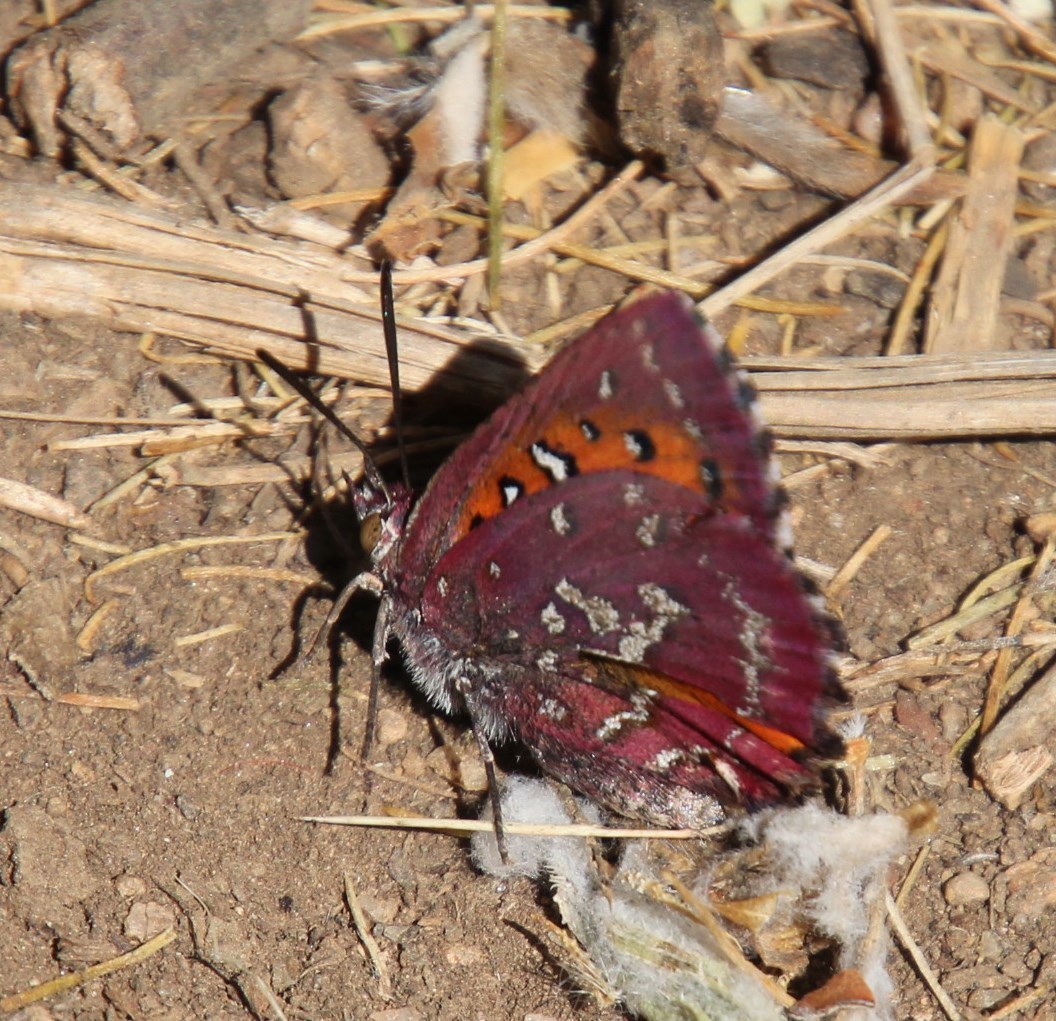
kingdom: Animalia
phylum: Arthropoda
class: Insecta
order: Lepidoptera
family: Lycaenidae
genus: Aloeides
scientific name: Aloeides thyra
